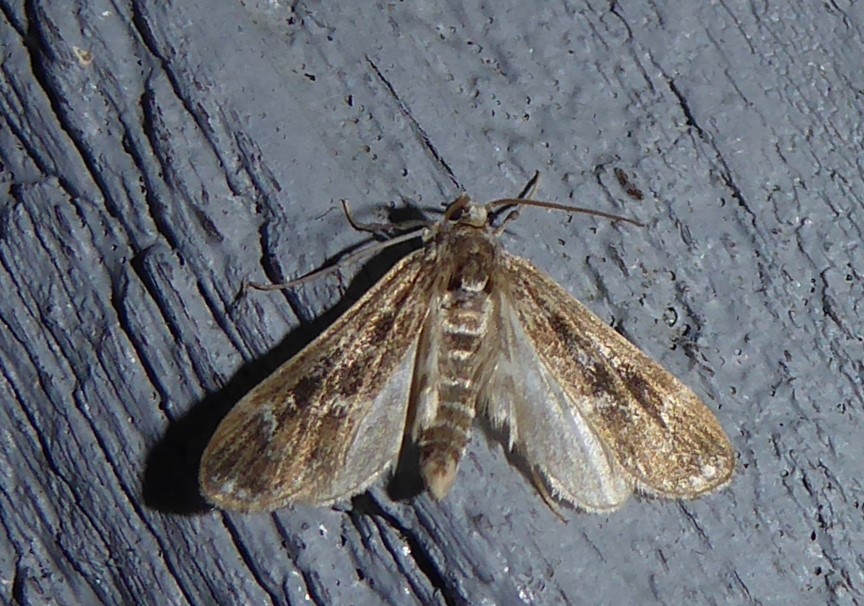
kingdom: Animalia
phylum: Arthropoda
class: Insecta
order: Lepidoptera
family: Crambidae
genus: Hygraula
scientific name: Hygraula nitens
